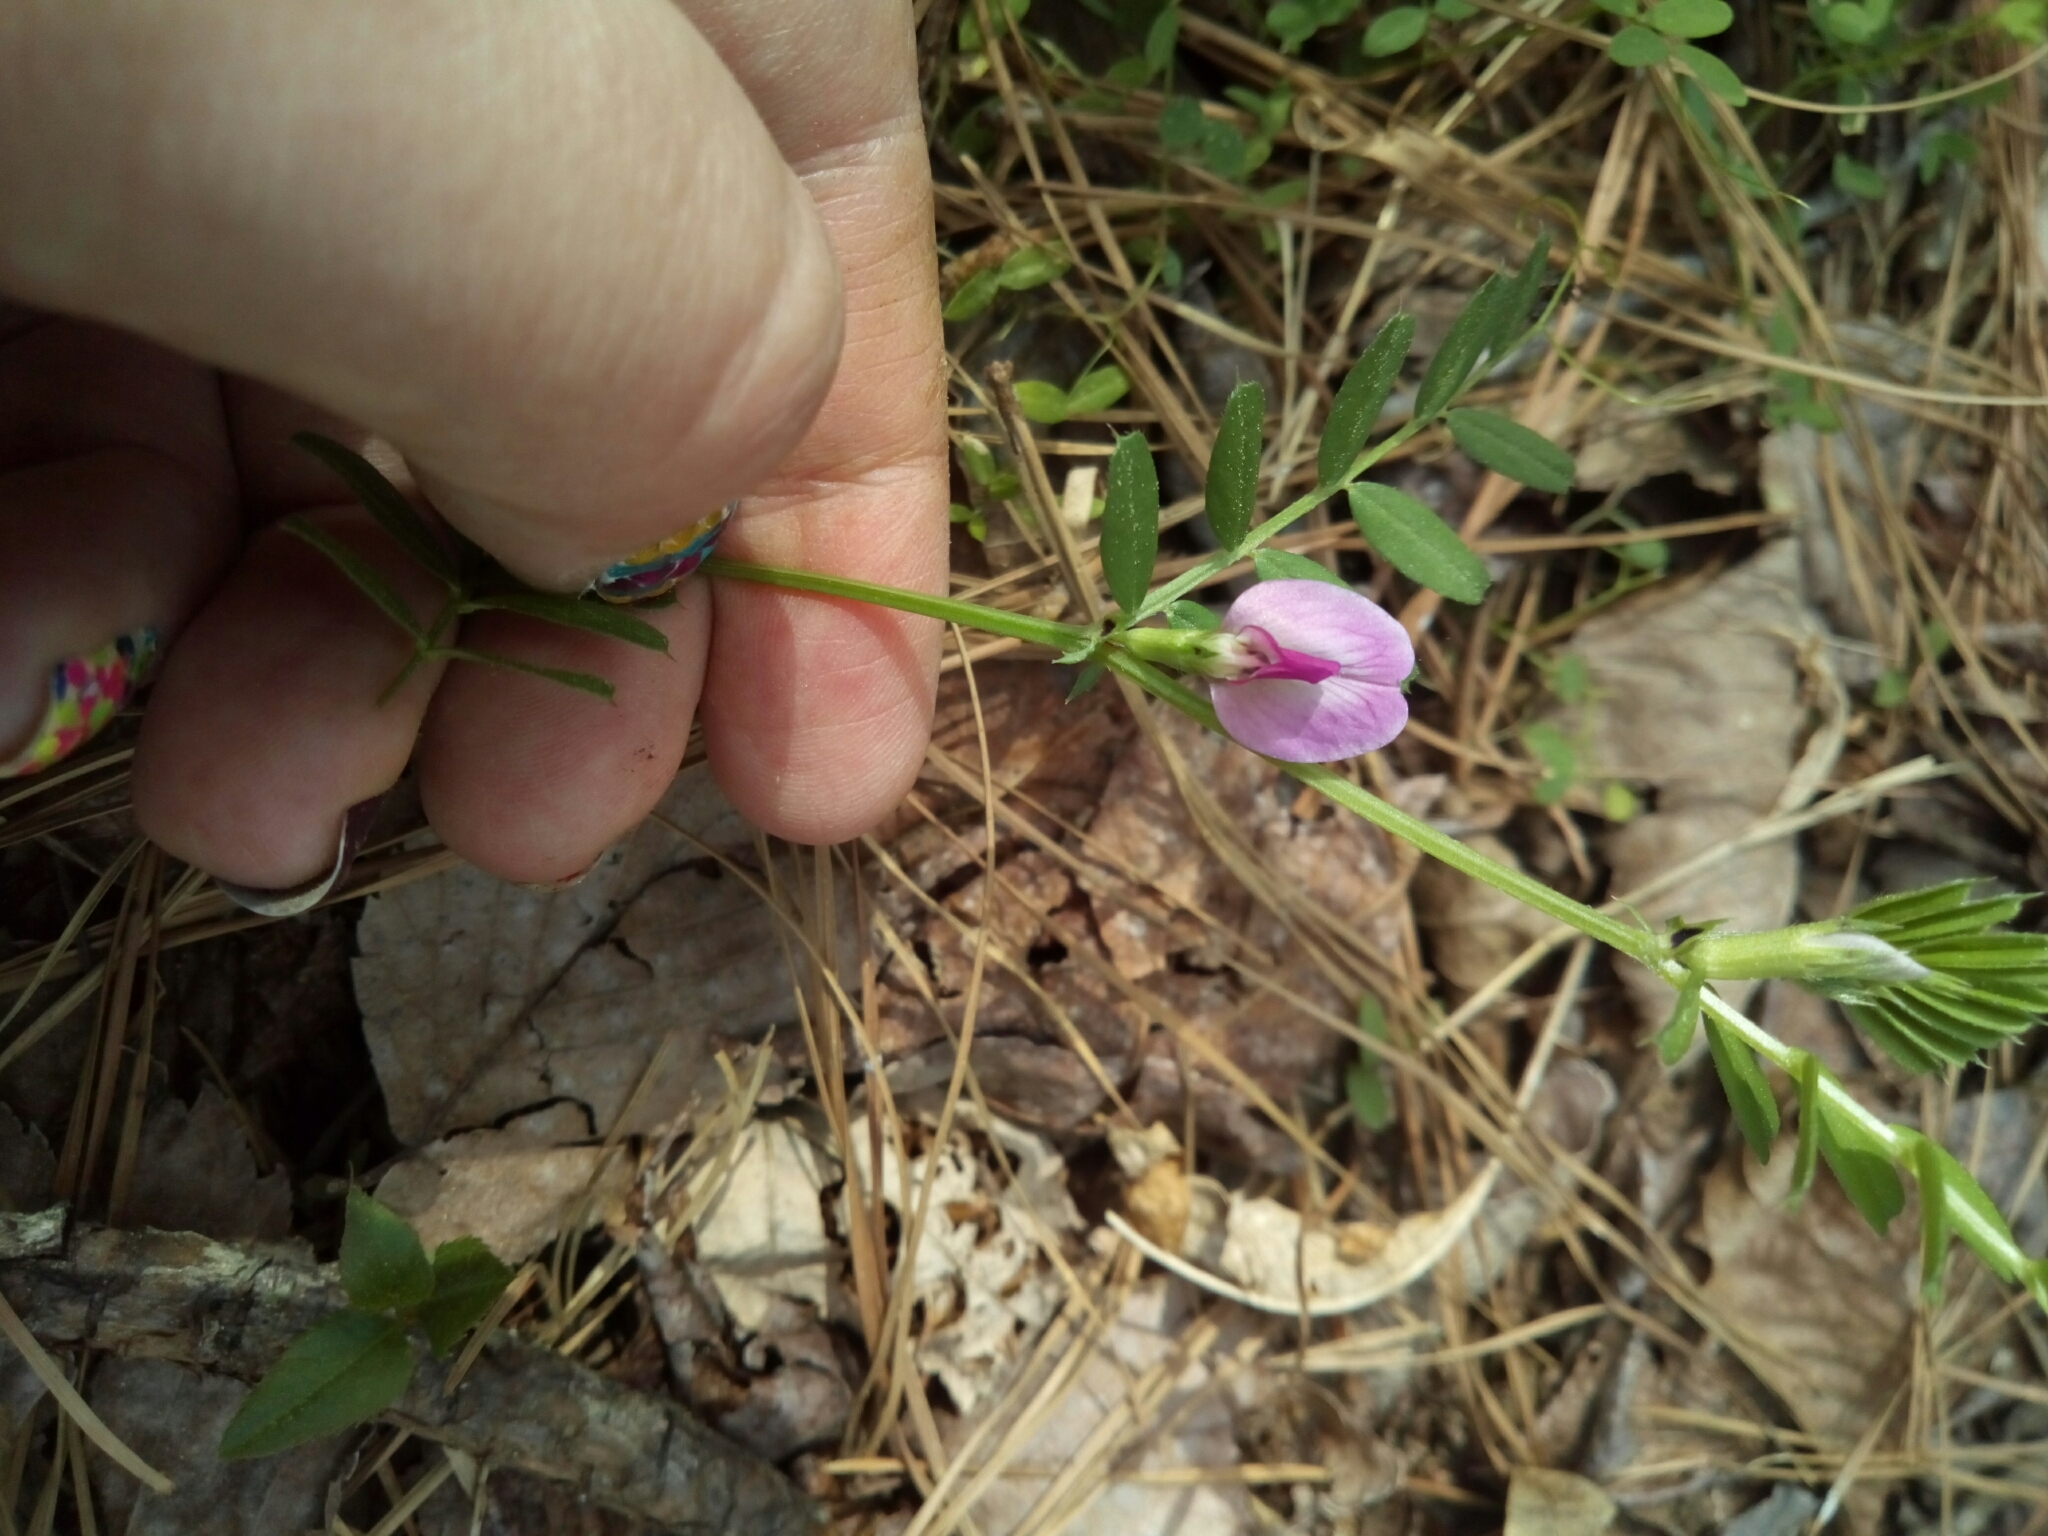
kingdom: Plantae
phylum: Tracheophyta
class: Magnoliopsida
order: Fabales
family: Fabaceae
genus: Vicia
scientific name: Vicia sativa
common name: Garden vetch
